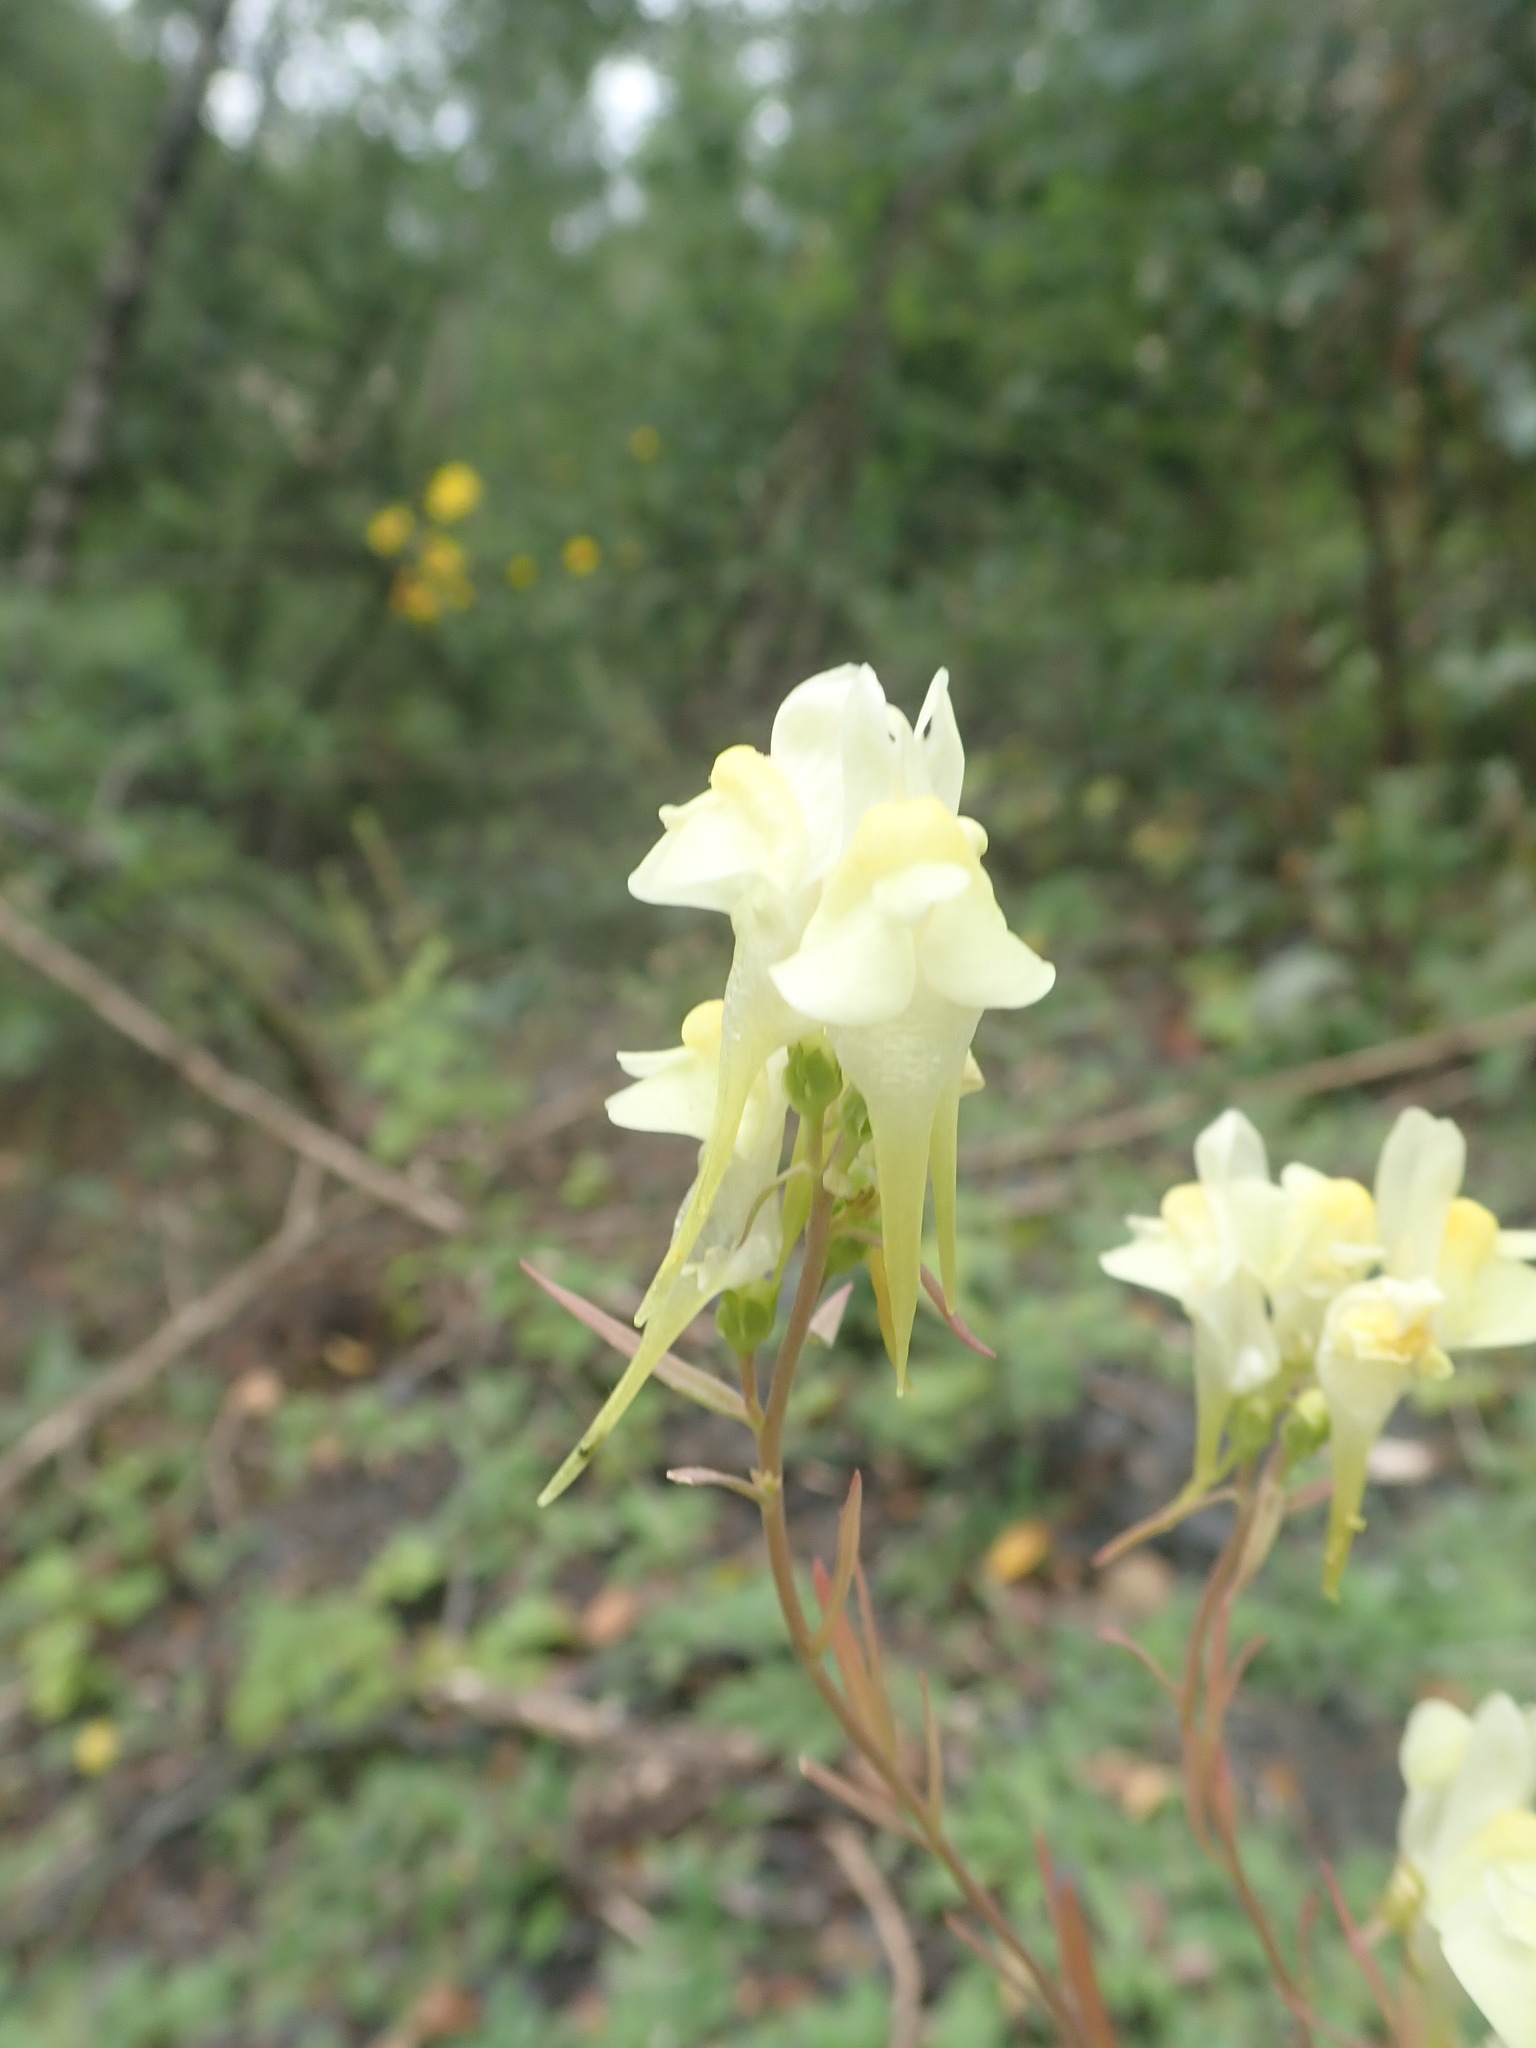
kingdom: Plantae
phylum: Tracheophyta
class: Magnoliopsida
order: Lamiales
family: Plantaginaceae
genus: Linaria
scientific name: Linaria vulgaris
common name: Butter and eggs
